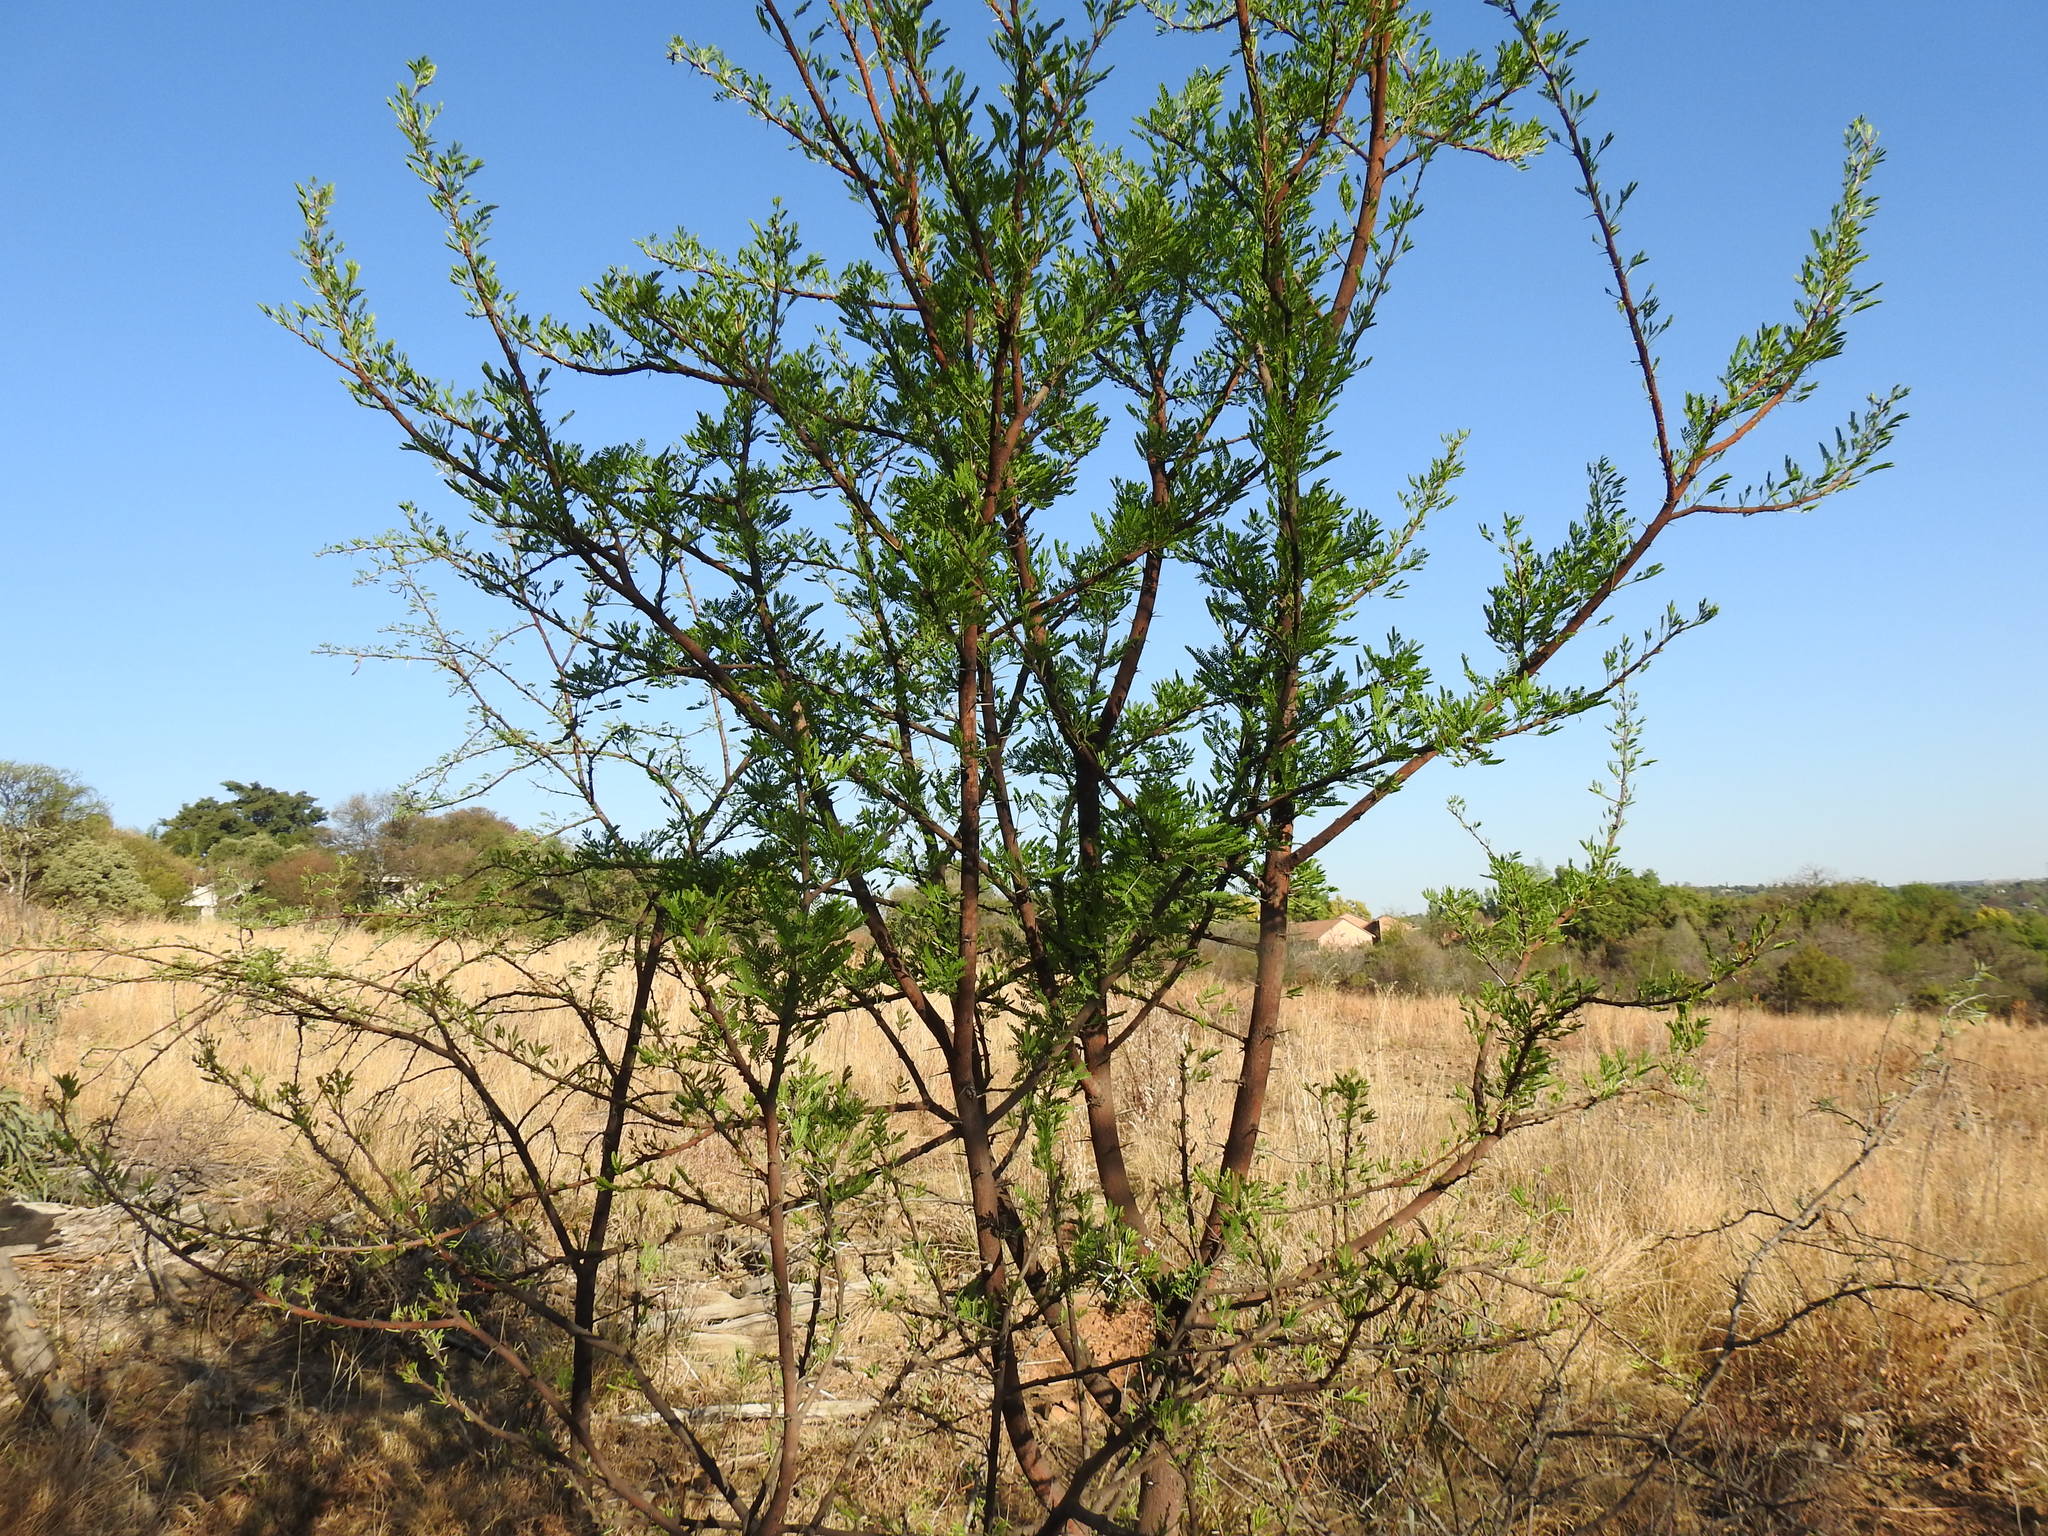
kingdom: Plantae
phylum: Tracheophyta
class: Magnoliopsida
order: Fabales
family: Fabaceae
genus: Vachellia
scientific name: Vachellia karroo
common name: Sweet thorn
